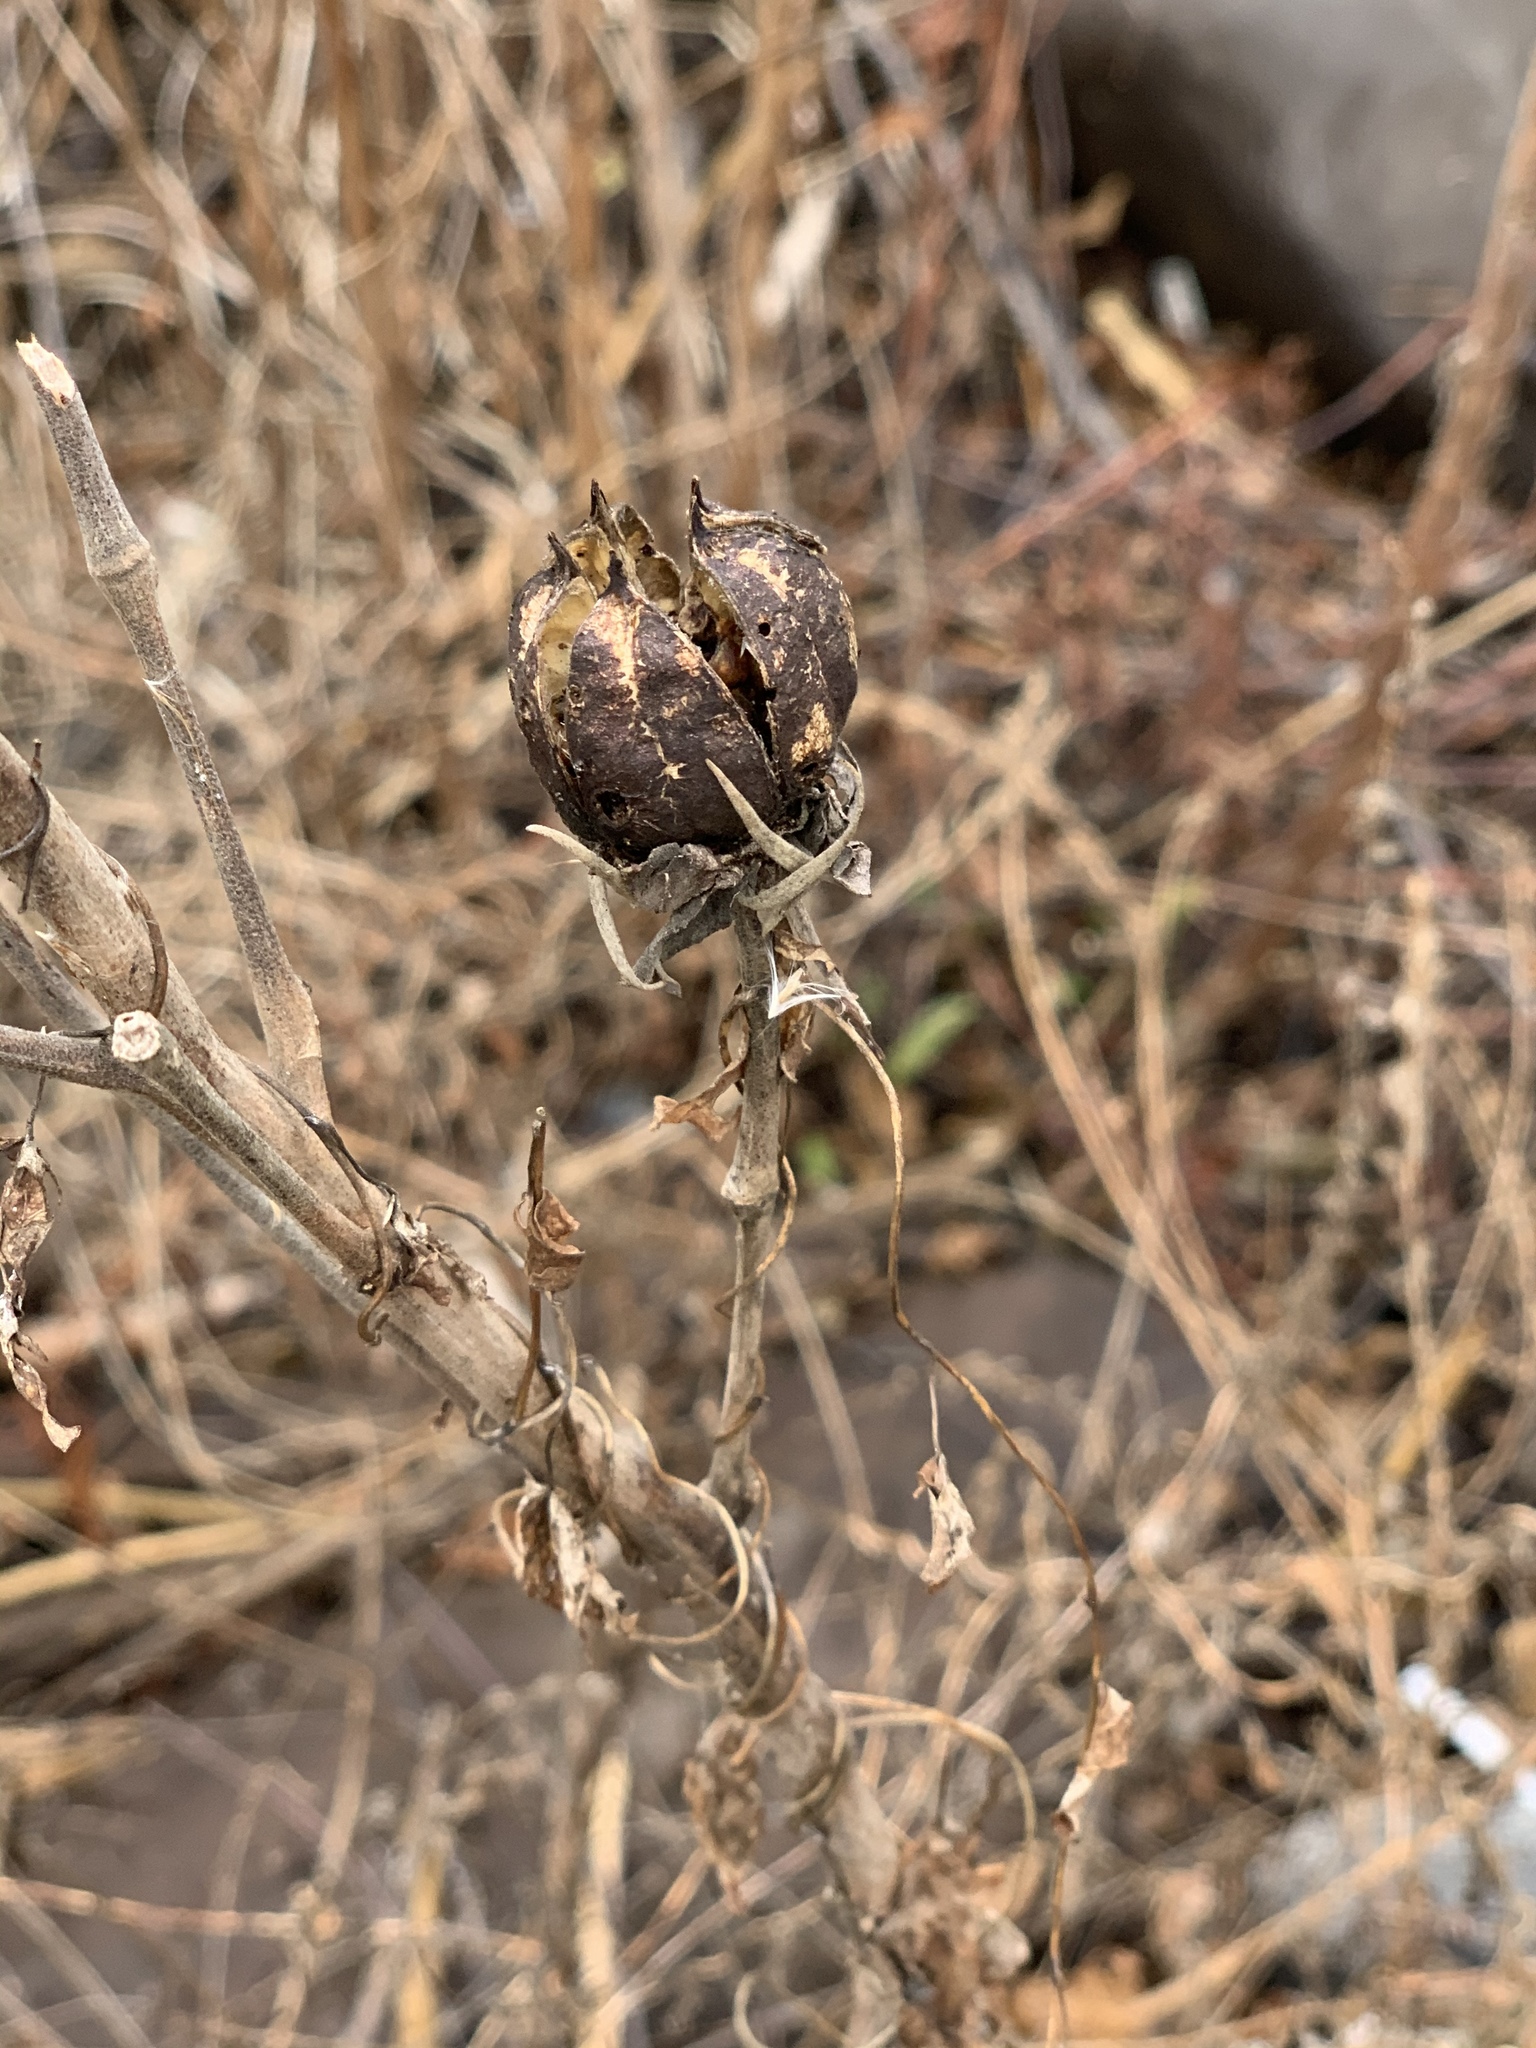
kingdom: Plantae
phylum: Tracheophyta
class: Magnoliopsida
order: Malvales
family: Malvaceae
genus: Hibiscus
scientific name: Hibiscus moscheutos
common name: Common rose-mallow
